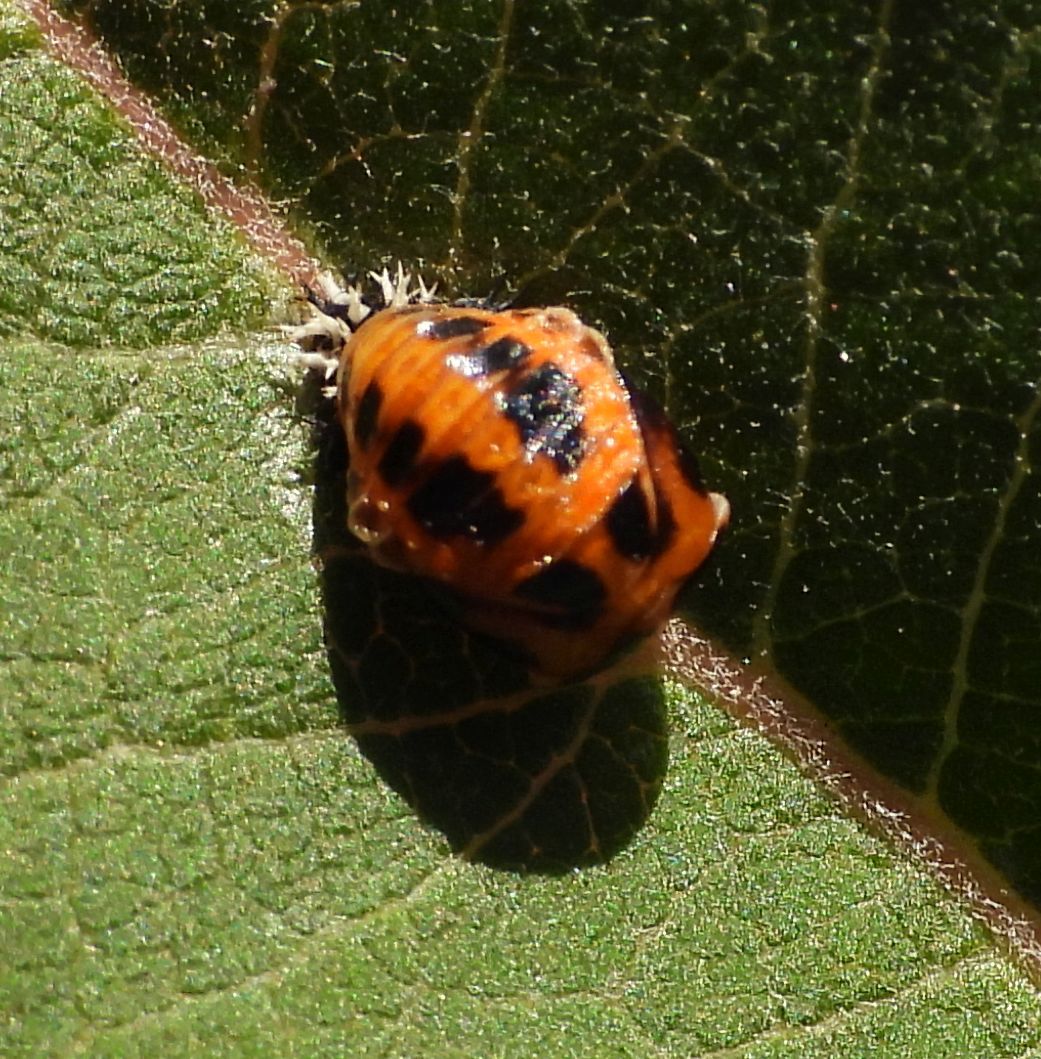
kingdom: Animalia
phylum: Arthropoda
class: Insecta
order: Coleoptera
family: Coccinellidae
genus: Harmonia
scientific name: Harmonia axyridis
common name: Harlequin ladybird
